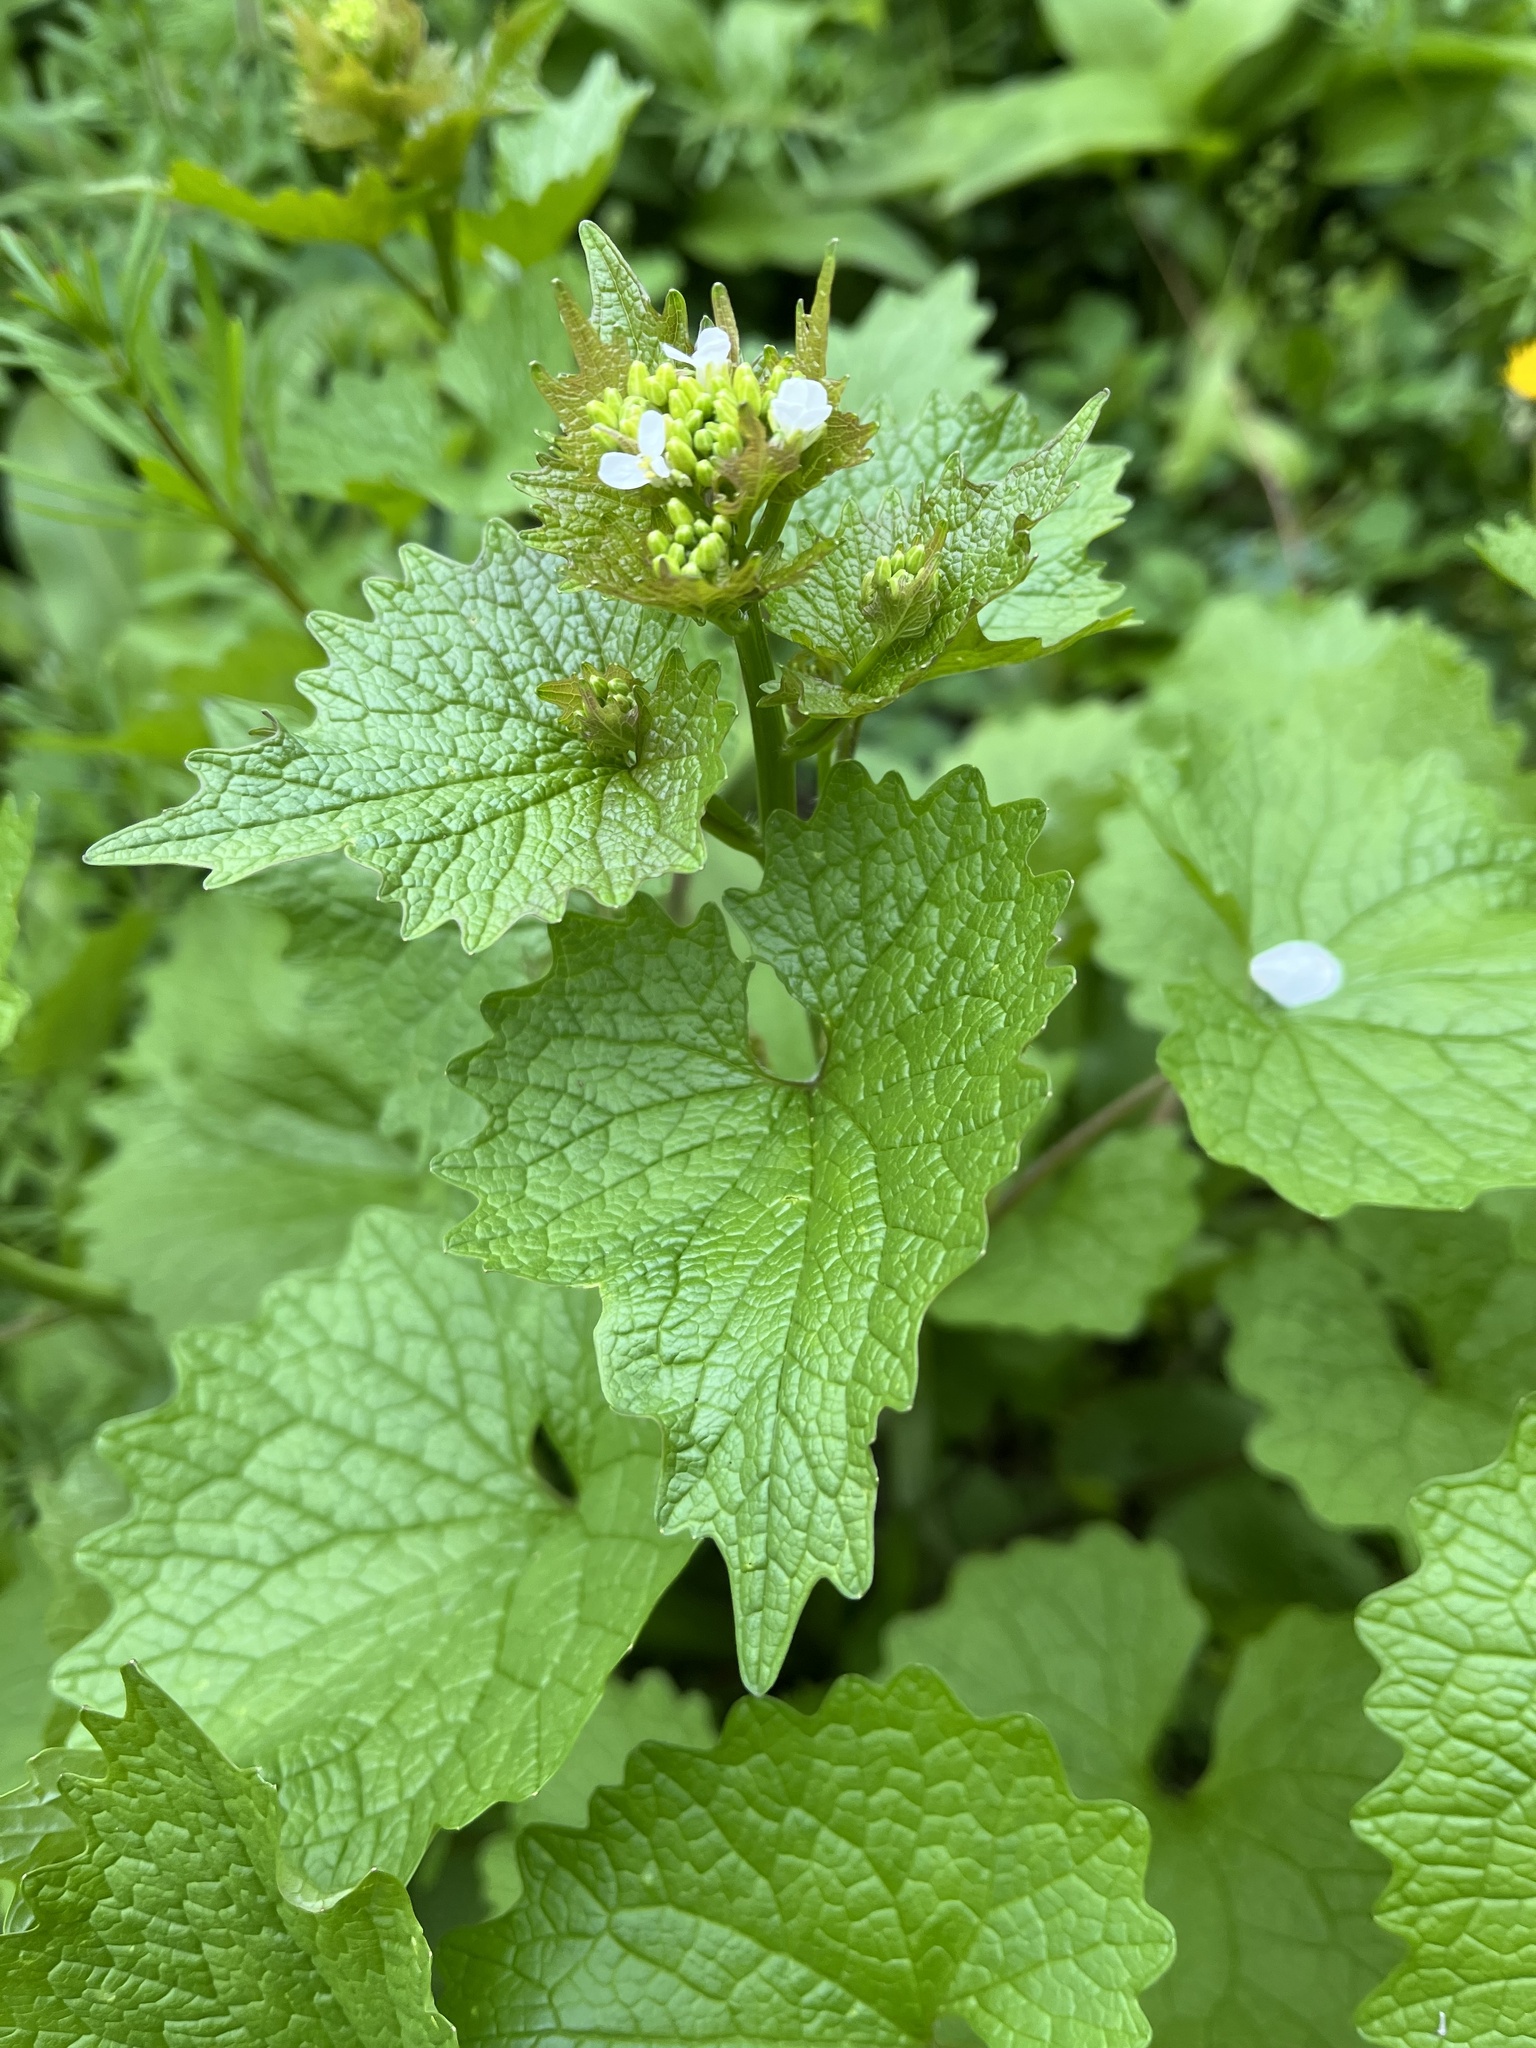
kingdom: Plantae
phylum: Tracheophyta
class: Magnoliopsida
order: Brassicales
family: Brassicaceae
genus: Alliaria
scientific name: Alliaria petiolata
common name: Garlic mustard
